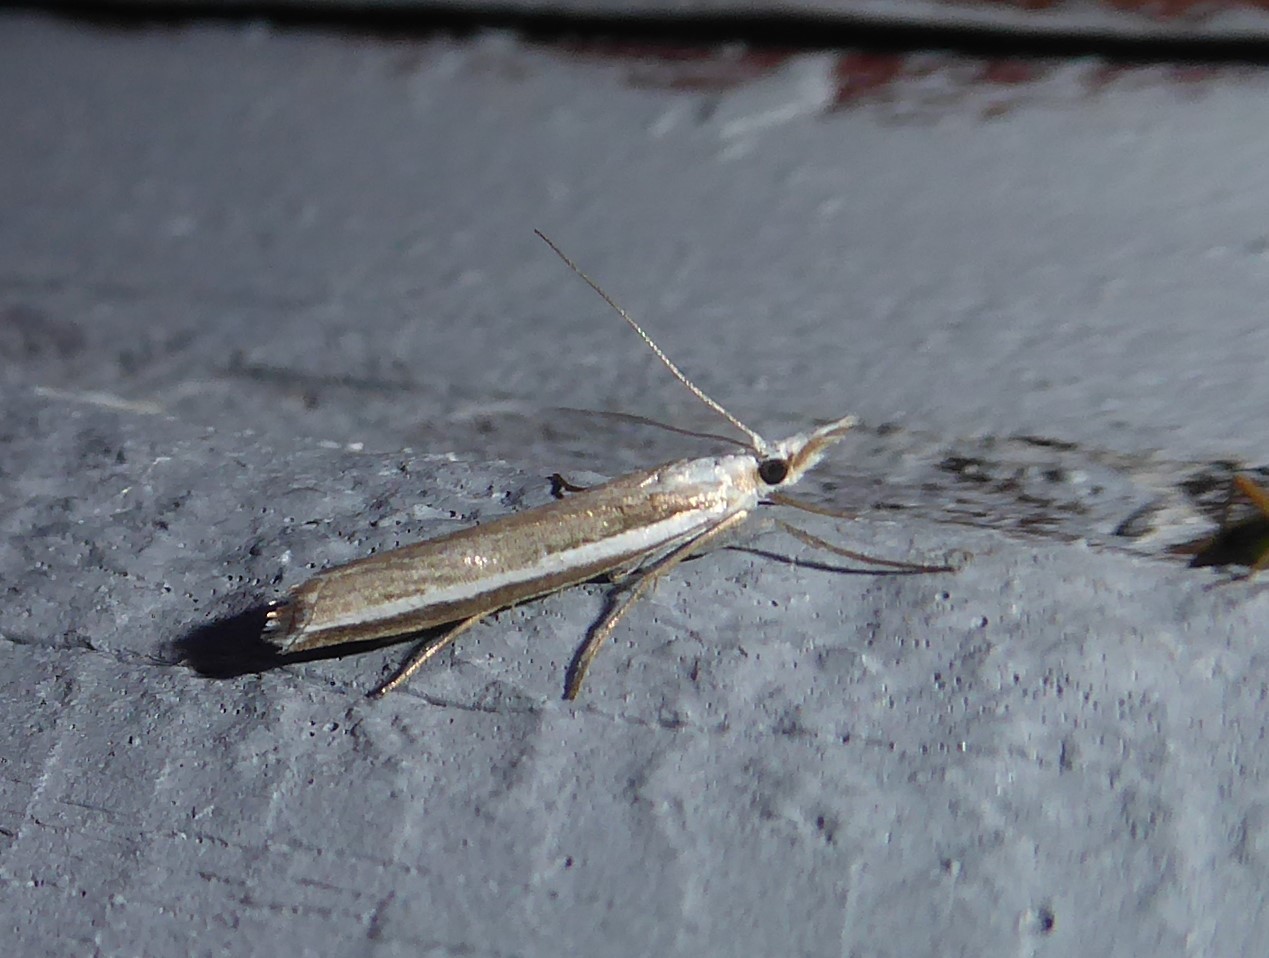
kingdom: Animalia
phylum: Arthropoda
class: Insecta
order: Lepidoptera
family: Crambidae
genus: Orocrambus
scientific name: Orocrambus vittellus
